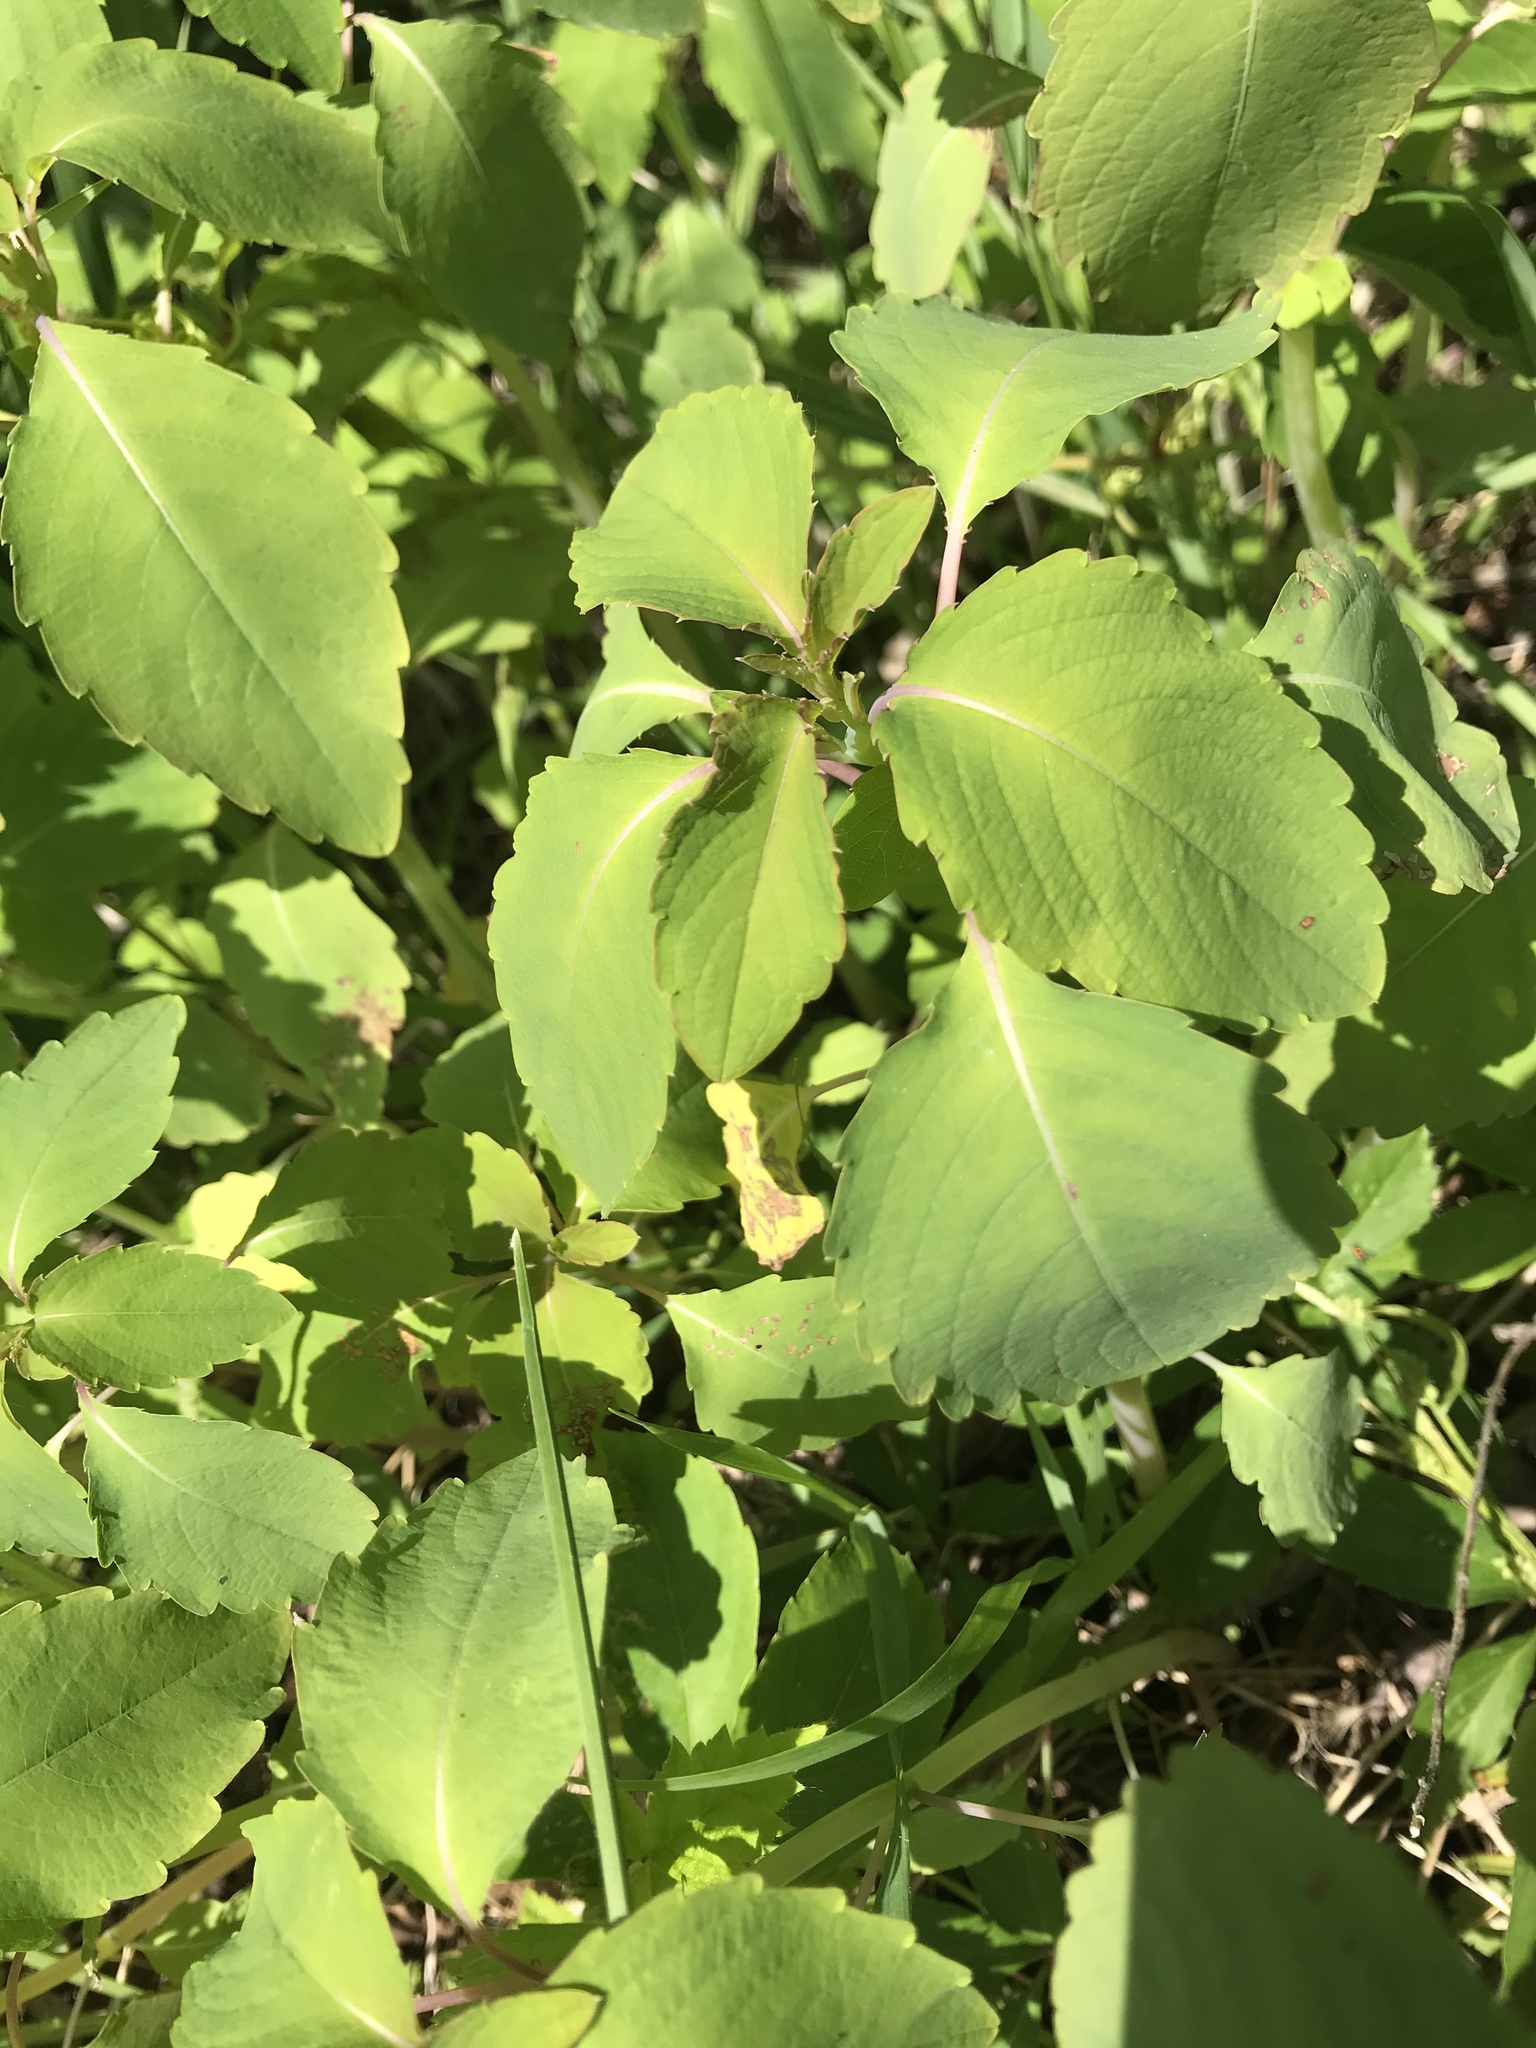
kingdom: Plantae
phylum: Tracheophyta
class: Magnoliopsida
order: Ericales
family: Balsaminaceae
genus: Impatiens
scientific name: Impatiens capensis
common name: Orange balsam
